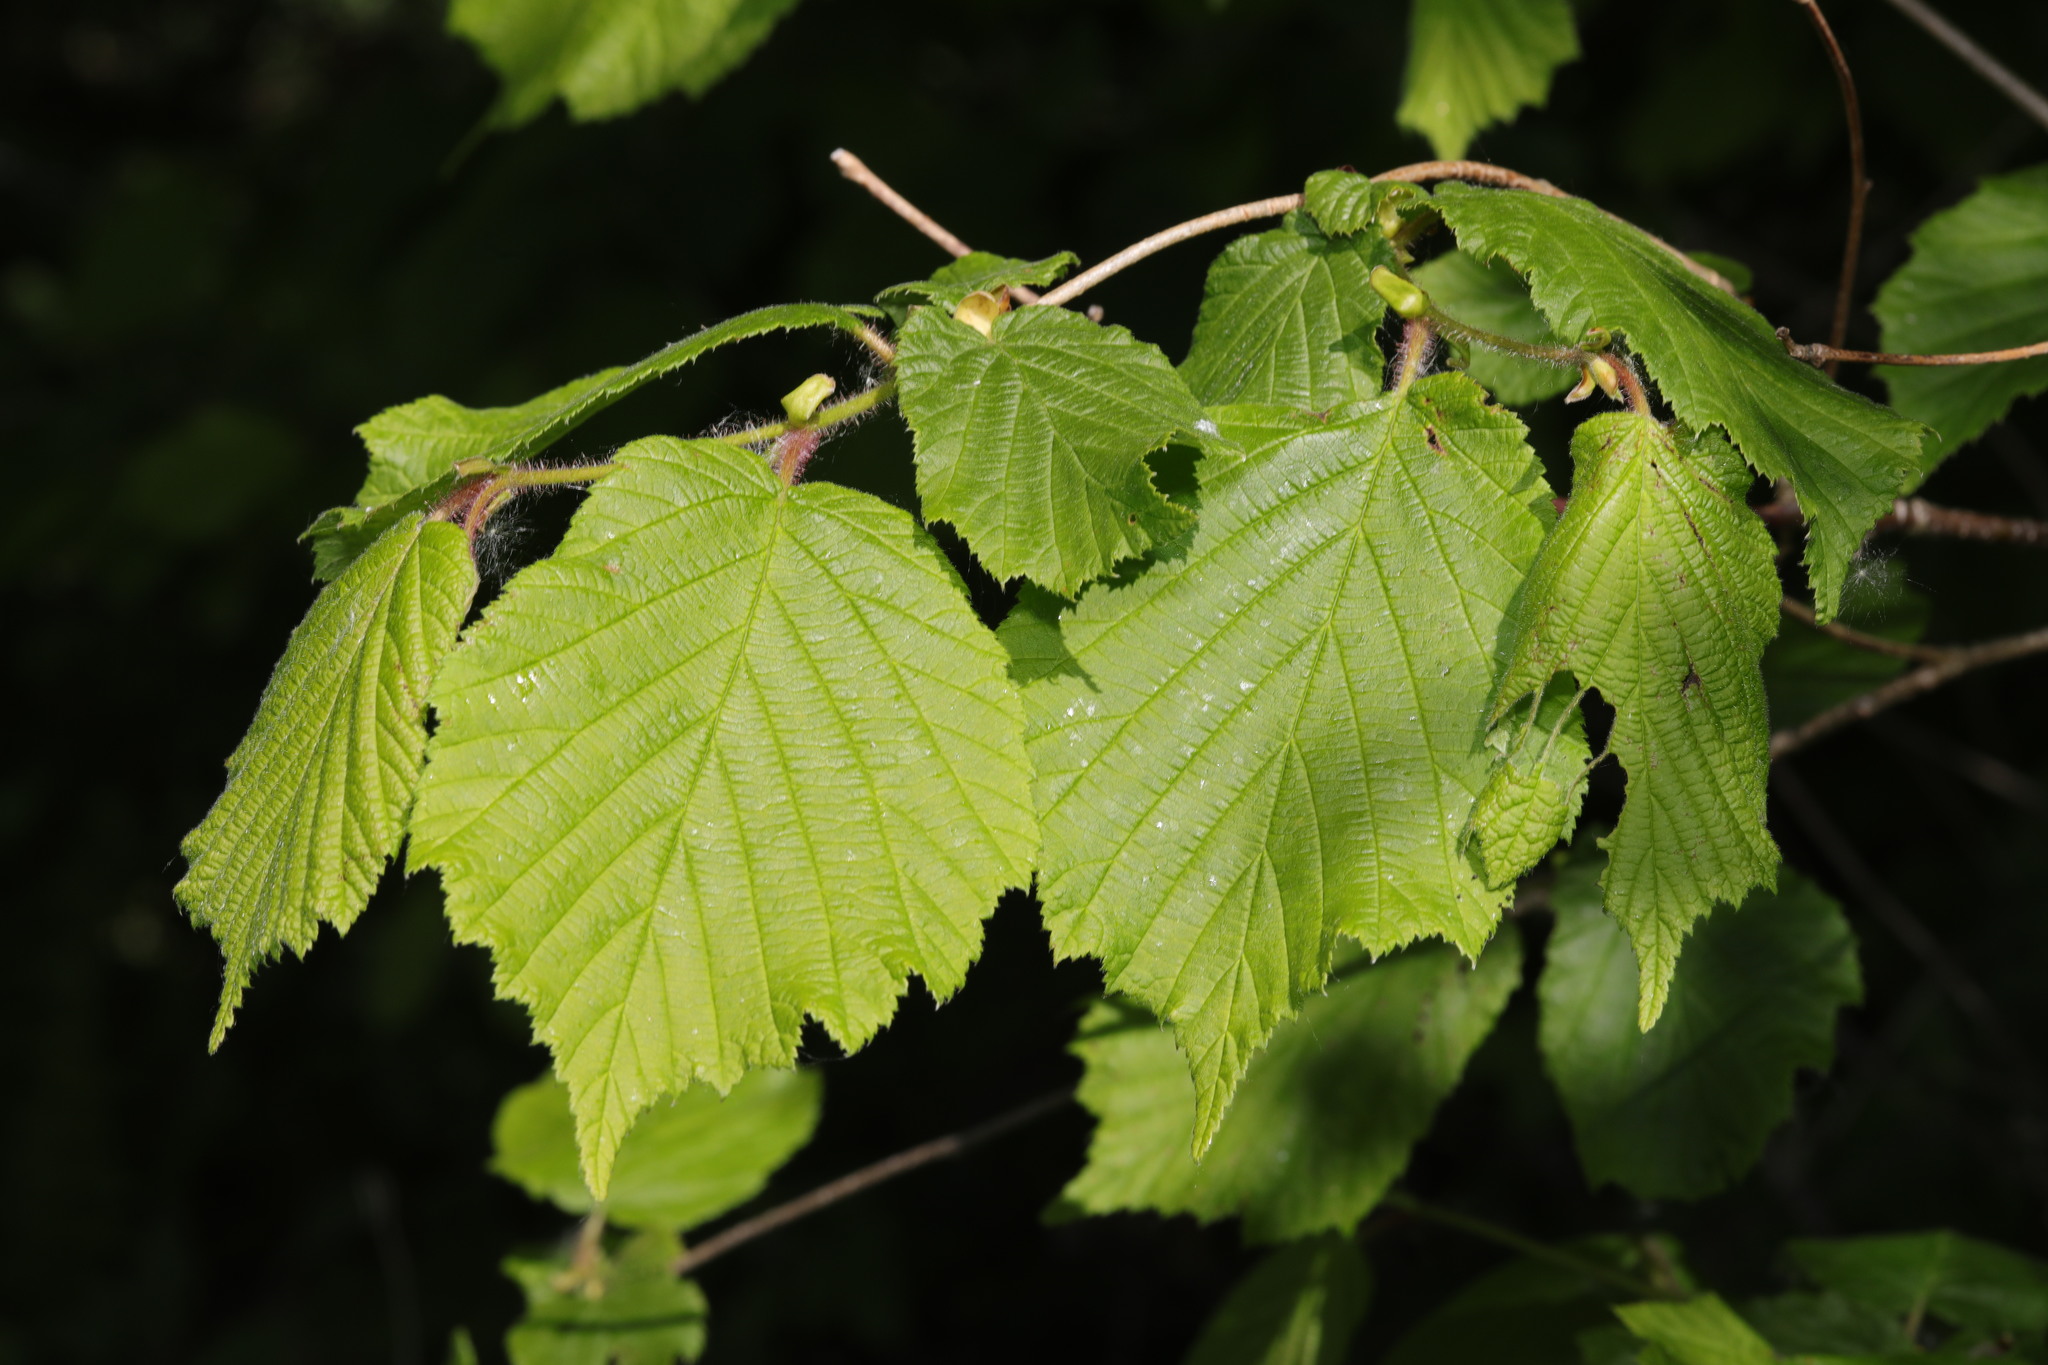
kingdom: Plantae
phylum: Tracheophyta
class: Magnoliopsida
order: Fagales
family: Betulaceae
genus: Corylus
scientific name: Corylus avellana
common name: European hazel
